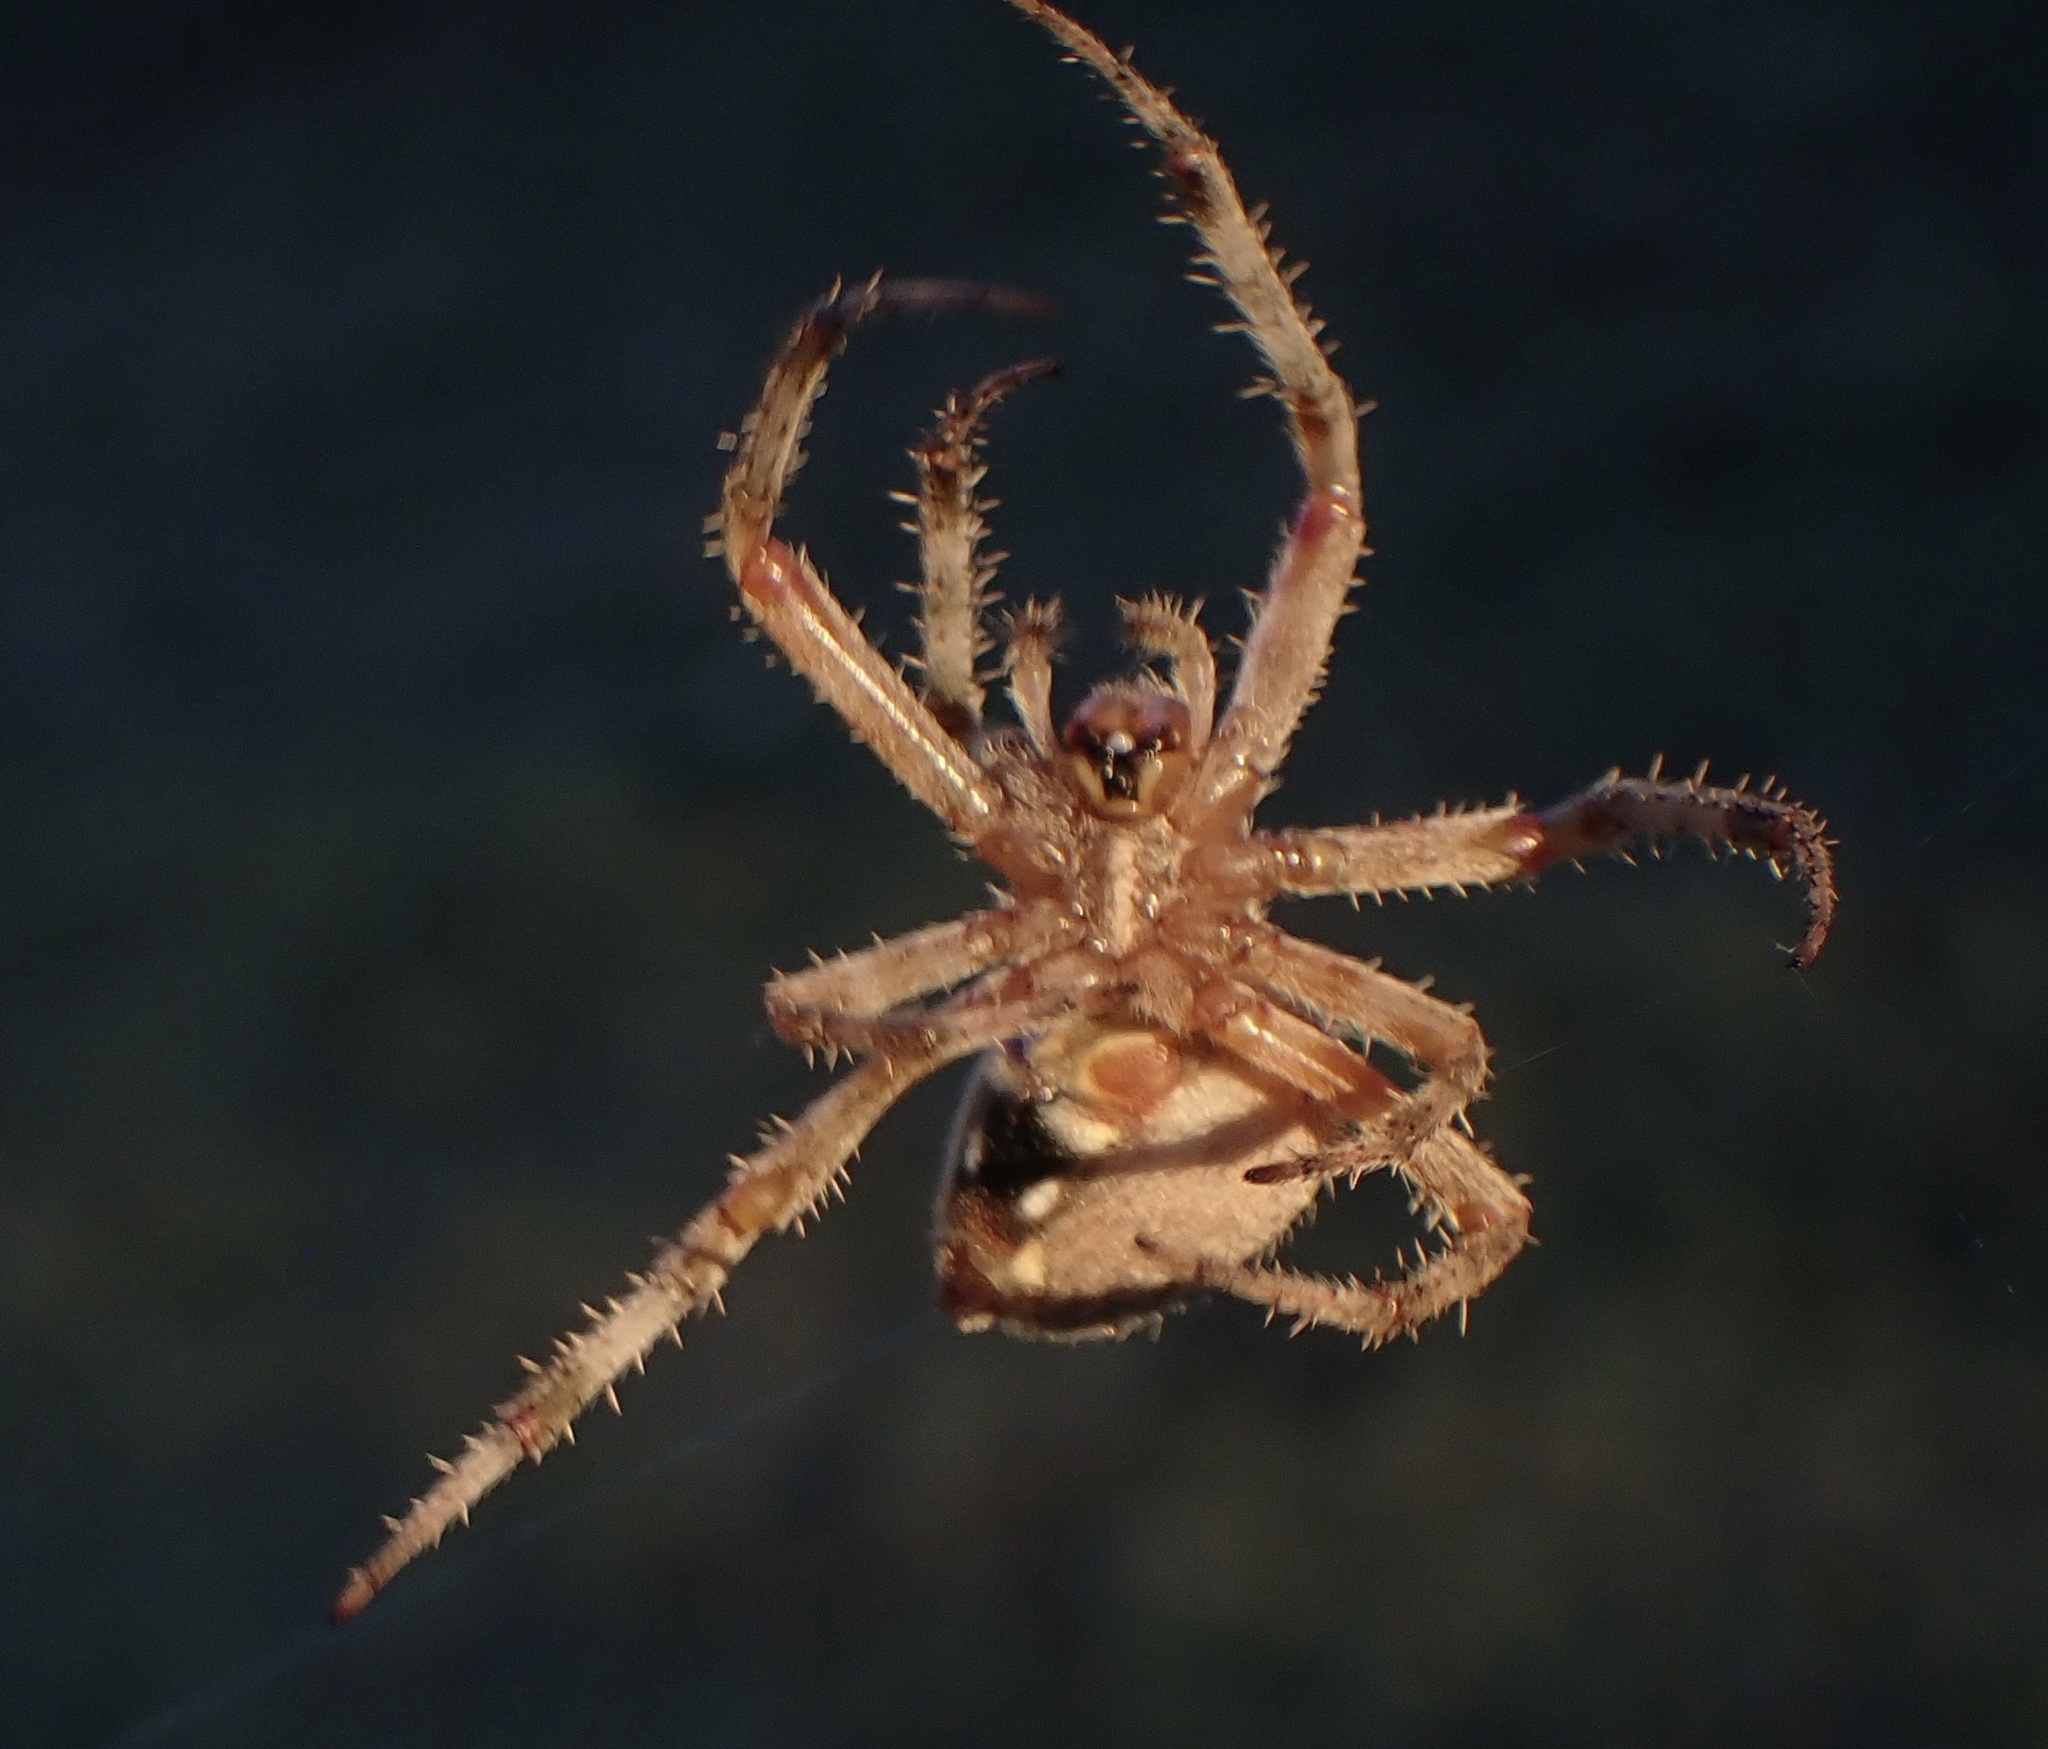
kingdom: Animalia
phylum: Arthropoda
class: Arachnida
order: Araneae
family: Araneidae
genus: Neoscona
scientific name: Neoscona crucifera
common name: Spotted orbweaver
